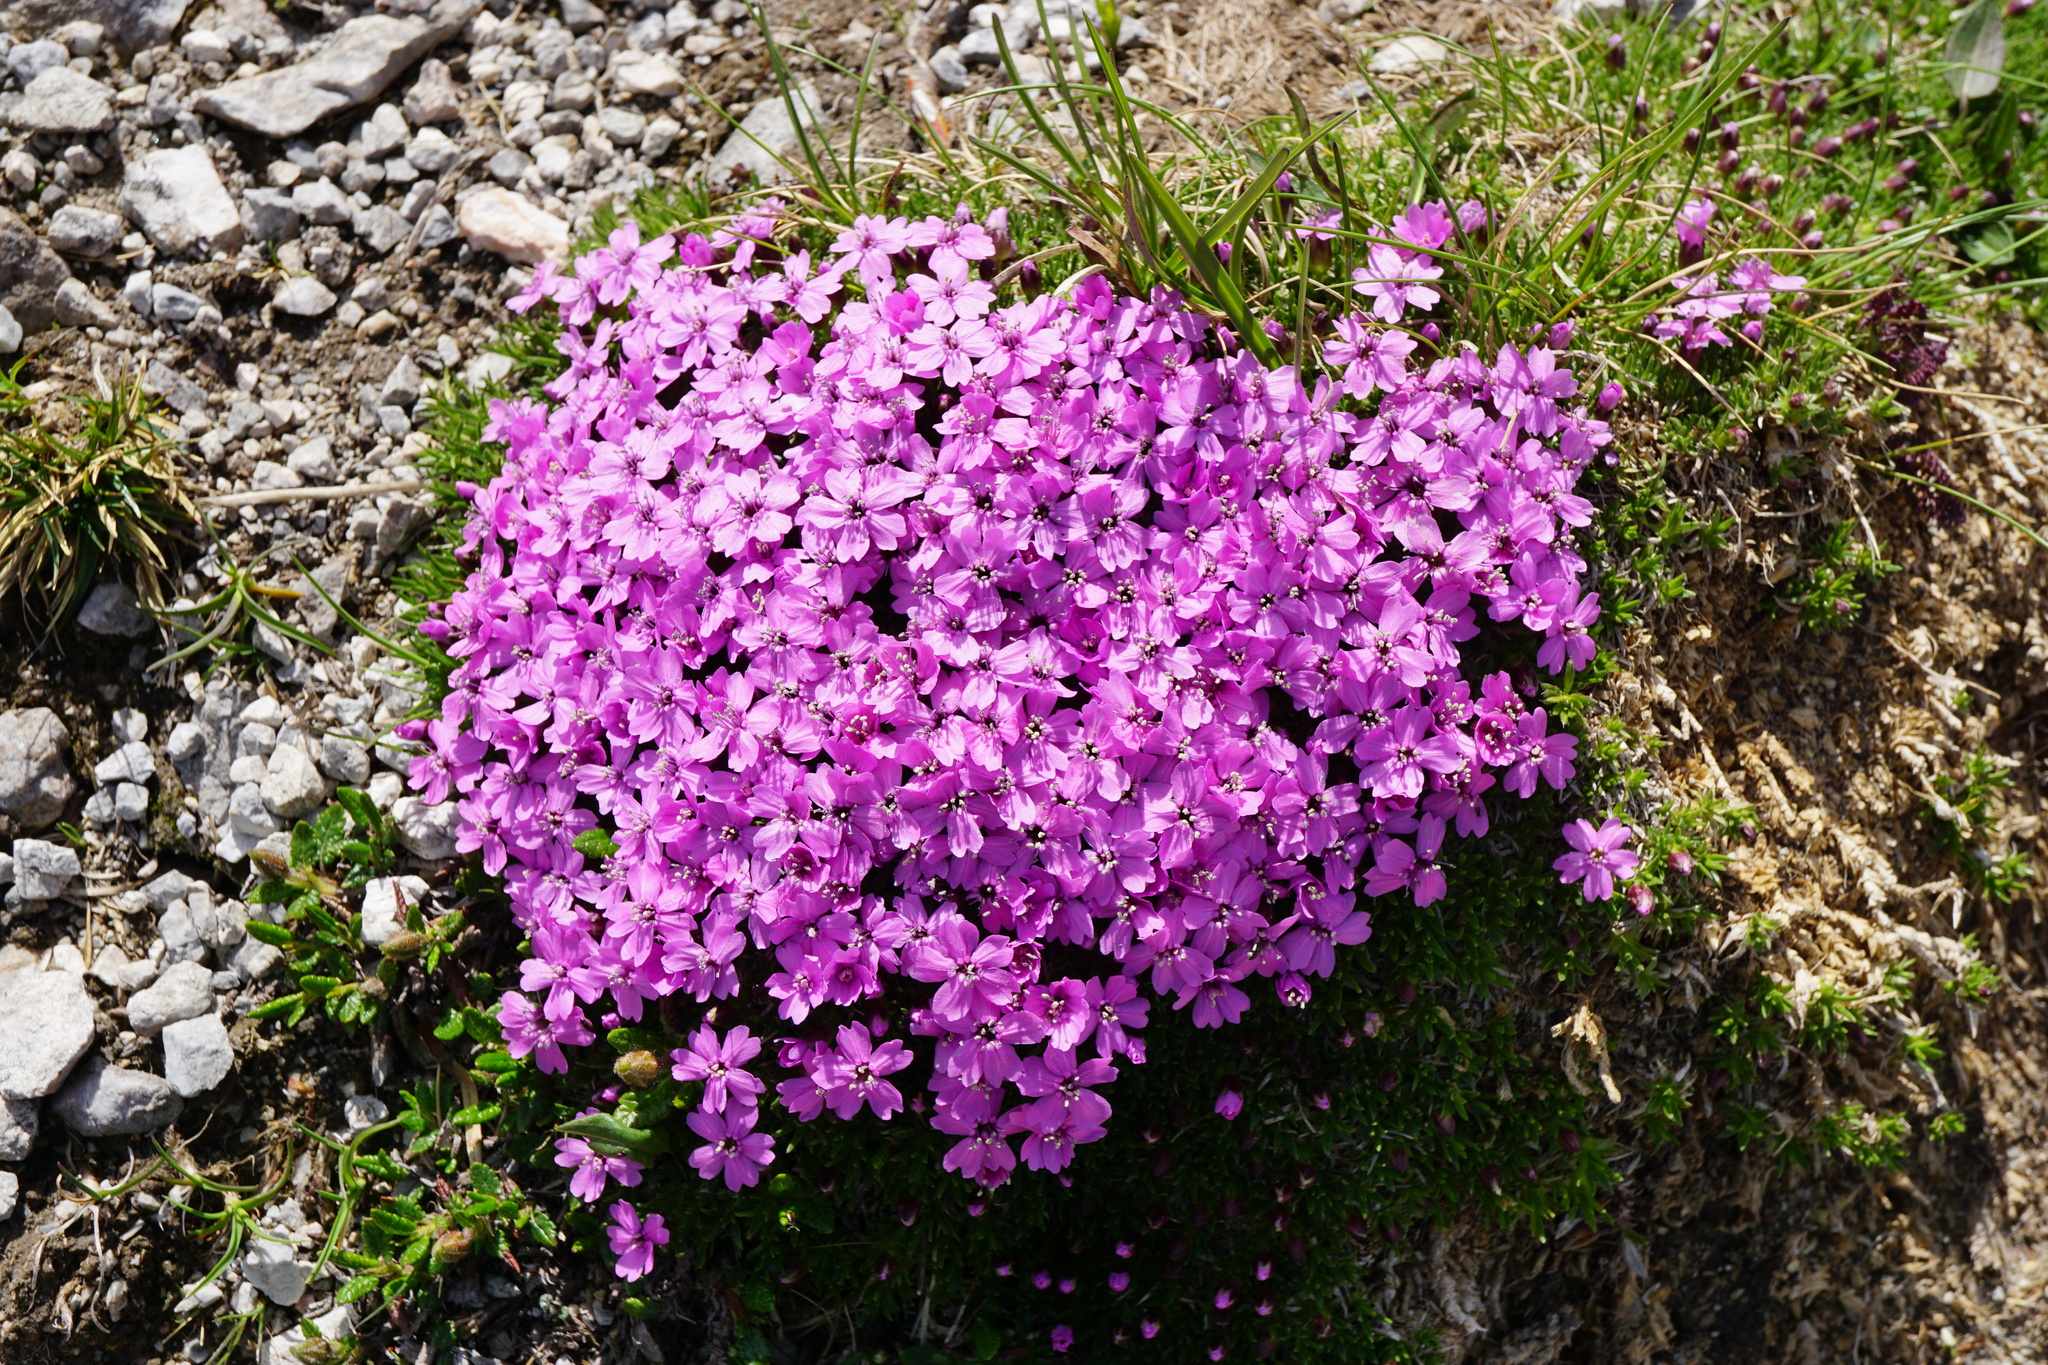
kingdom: Plantae
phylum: Tracheophyta
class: Magnoliopsida
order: Caryophyllales
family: Caryophyllaceae
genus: Silene
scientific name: Silene acaulis
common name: Moss campion
